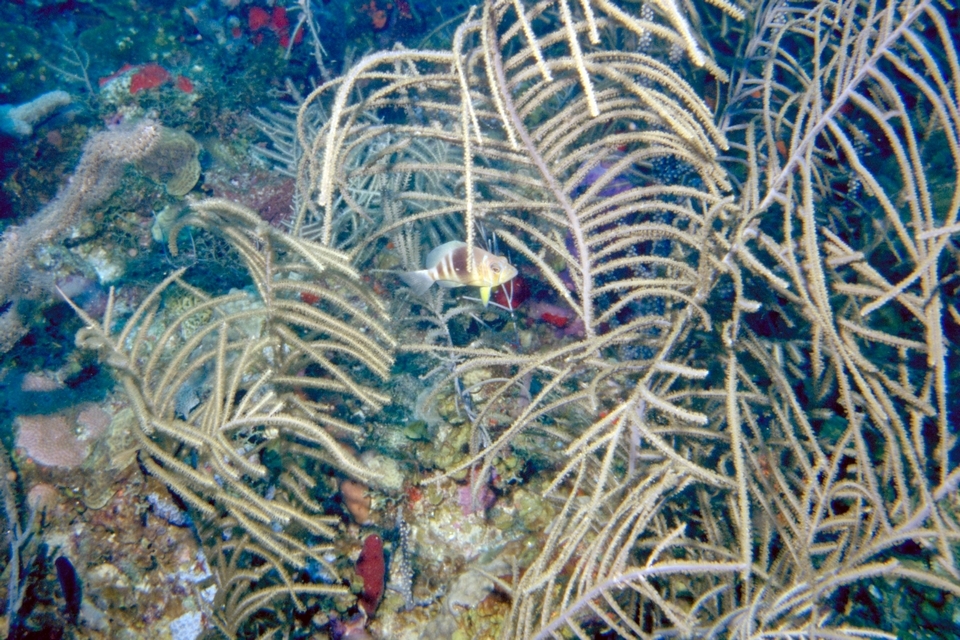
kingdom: Animalia
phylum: Chordata
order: Perciformes
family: Serranidae
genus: Hypoplectrus
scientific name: Hypoplectrus puella
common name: Barred hamlet
